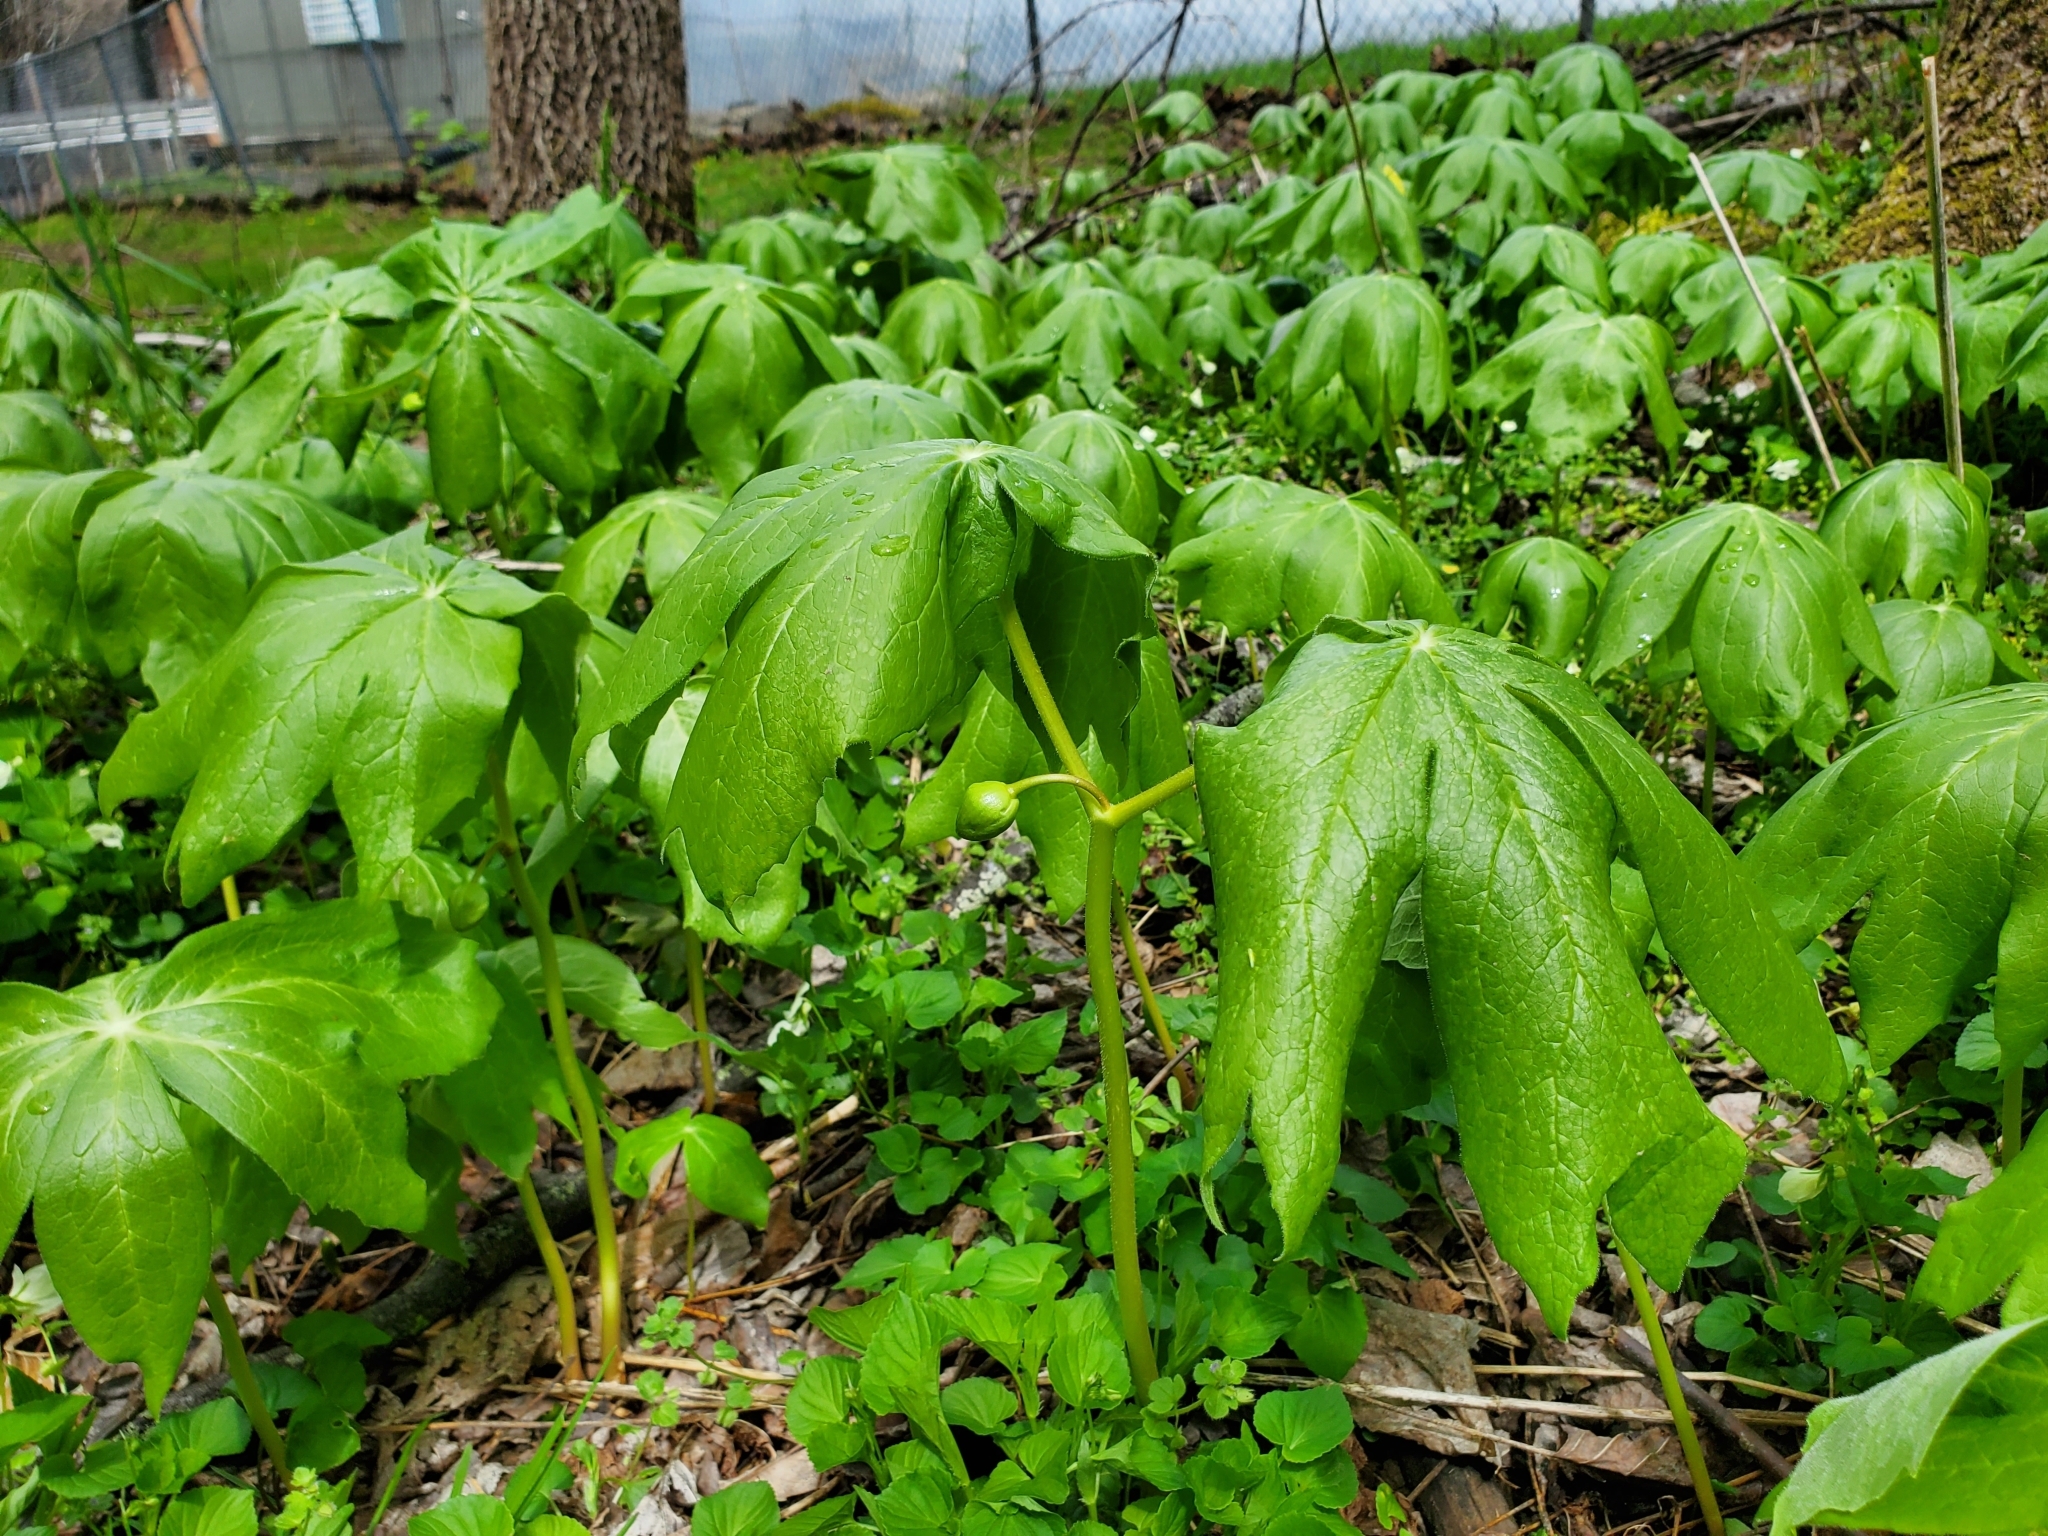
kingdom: Plantae
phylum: Tracheophyta
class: Magnoliopsida
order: Ranunculales
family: Berberidaceae
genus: Podophyllum
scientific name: Podophyllum peltatum
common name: Wild mandrake
